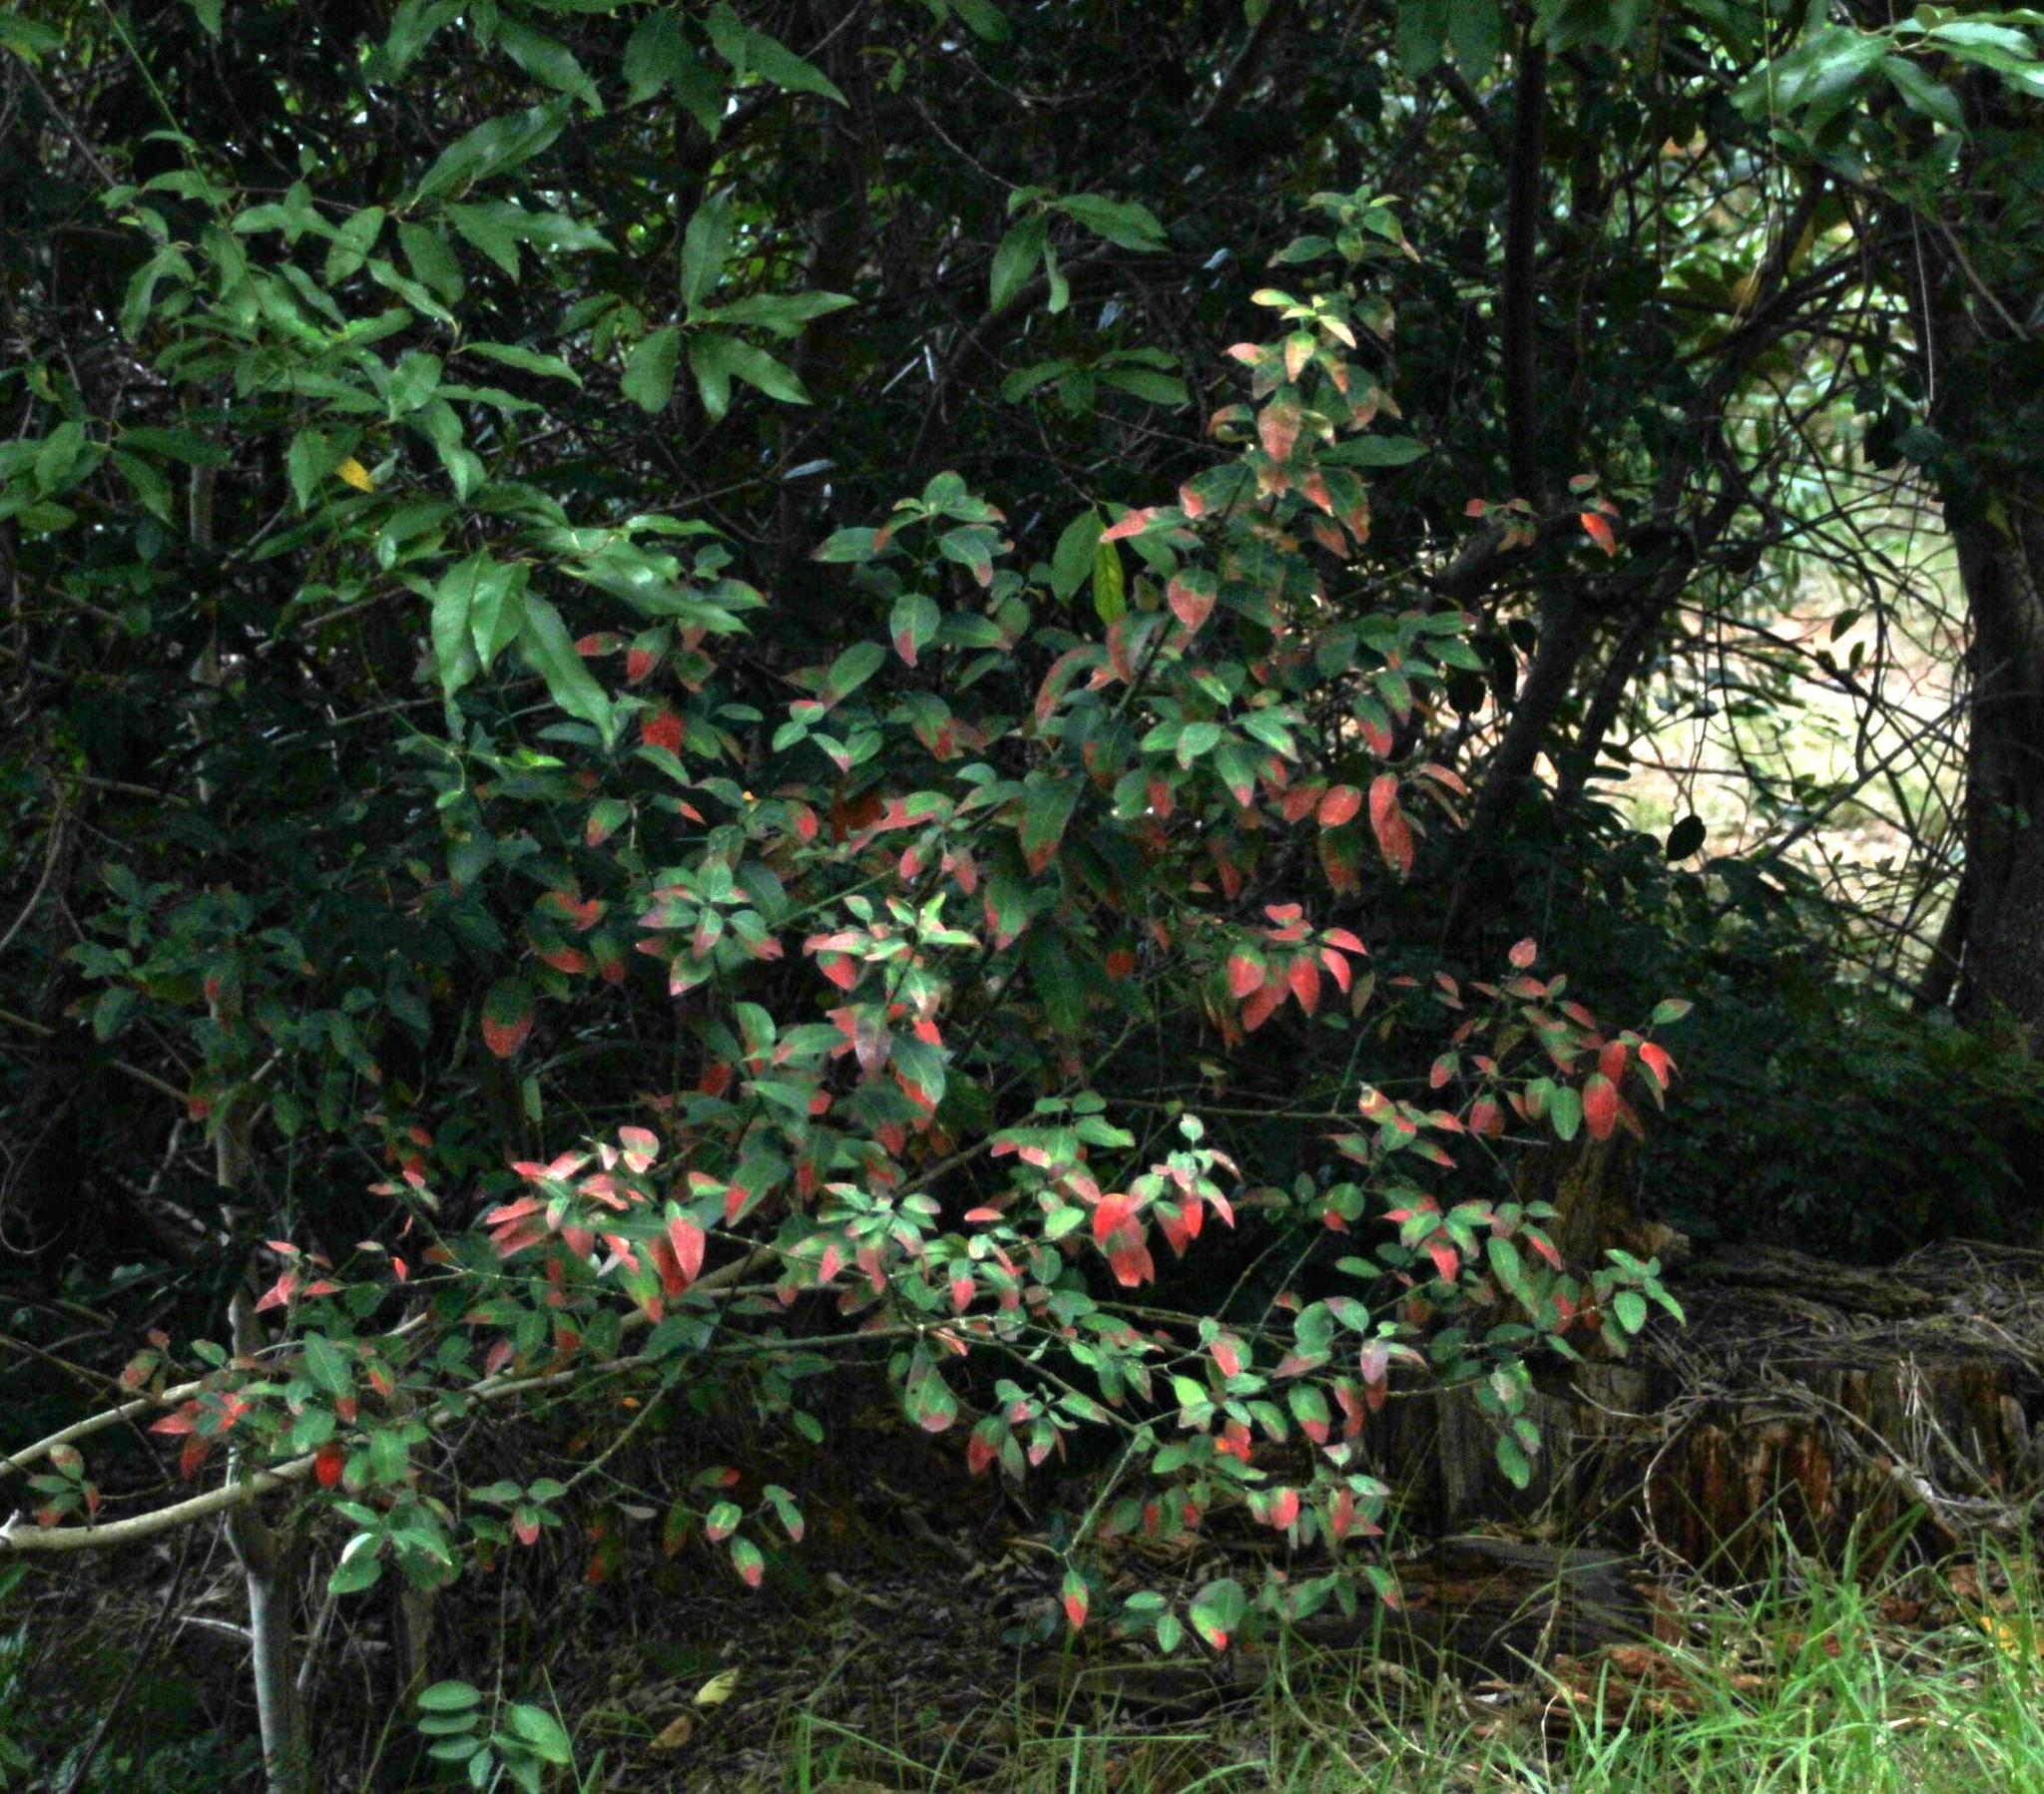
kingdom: Plantae
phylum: Tracheophyta
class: Magnoliopsida
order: Malpighiales
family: Peraceae
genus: Clutia
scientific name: Clutia pulchella
